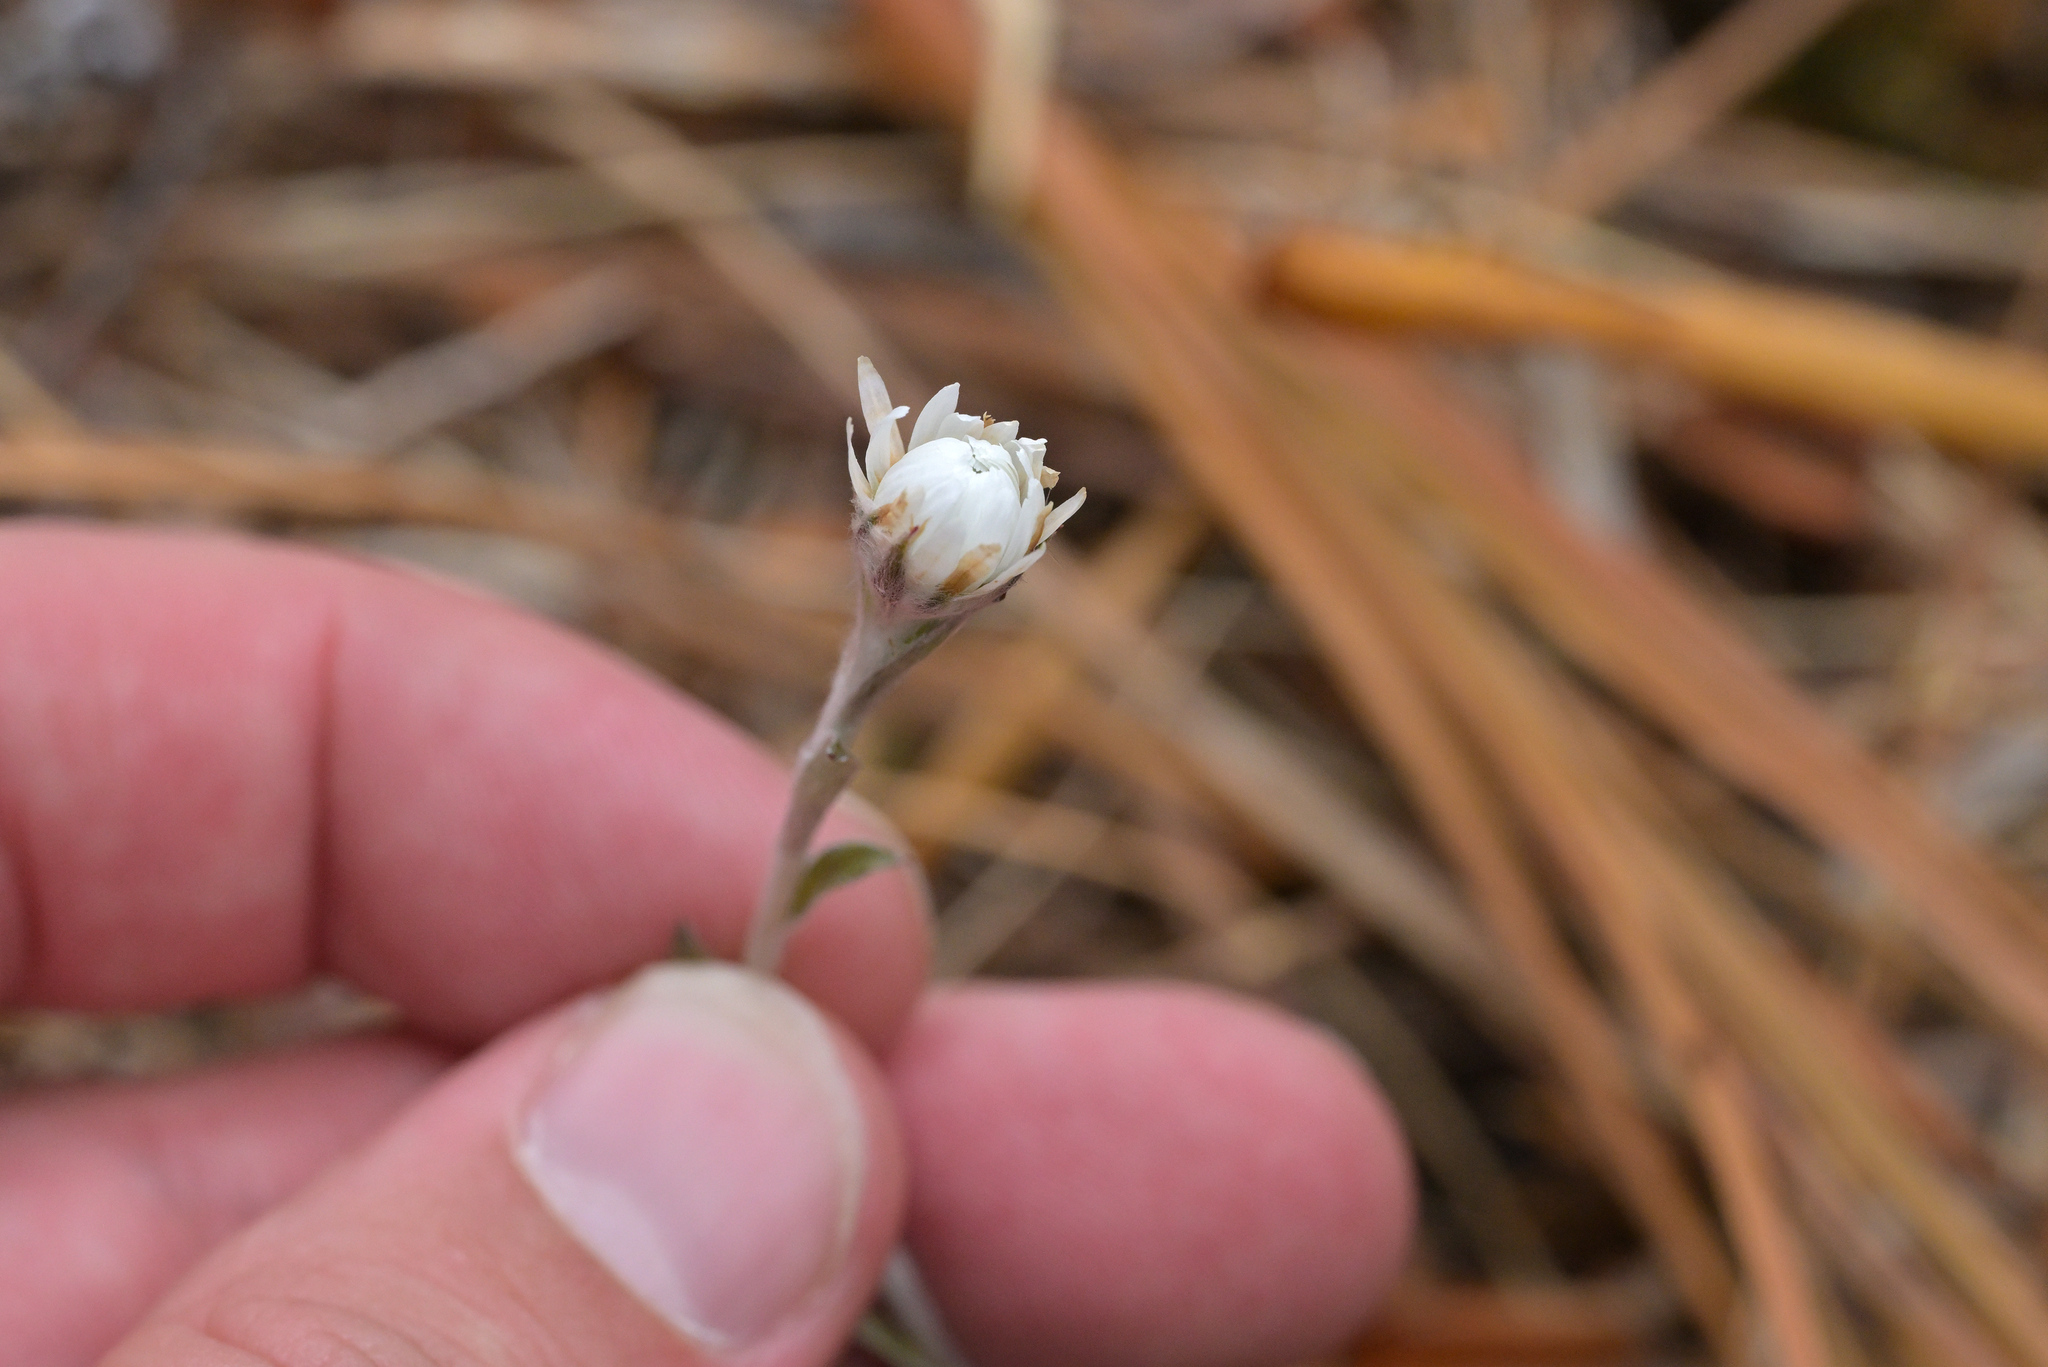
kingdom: Plantae
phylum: Tracheophyta
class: Magnoliopsida
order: Asterales
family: Asteraceae
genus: Anaphalioides
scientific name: Anaphalioides bellidioides
